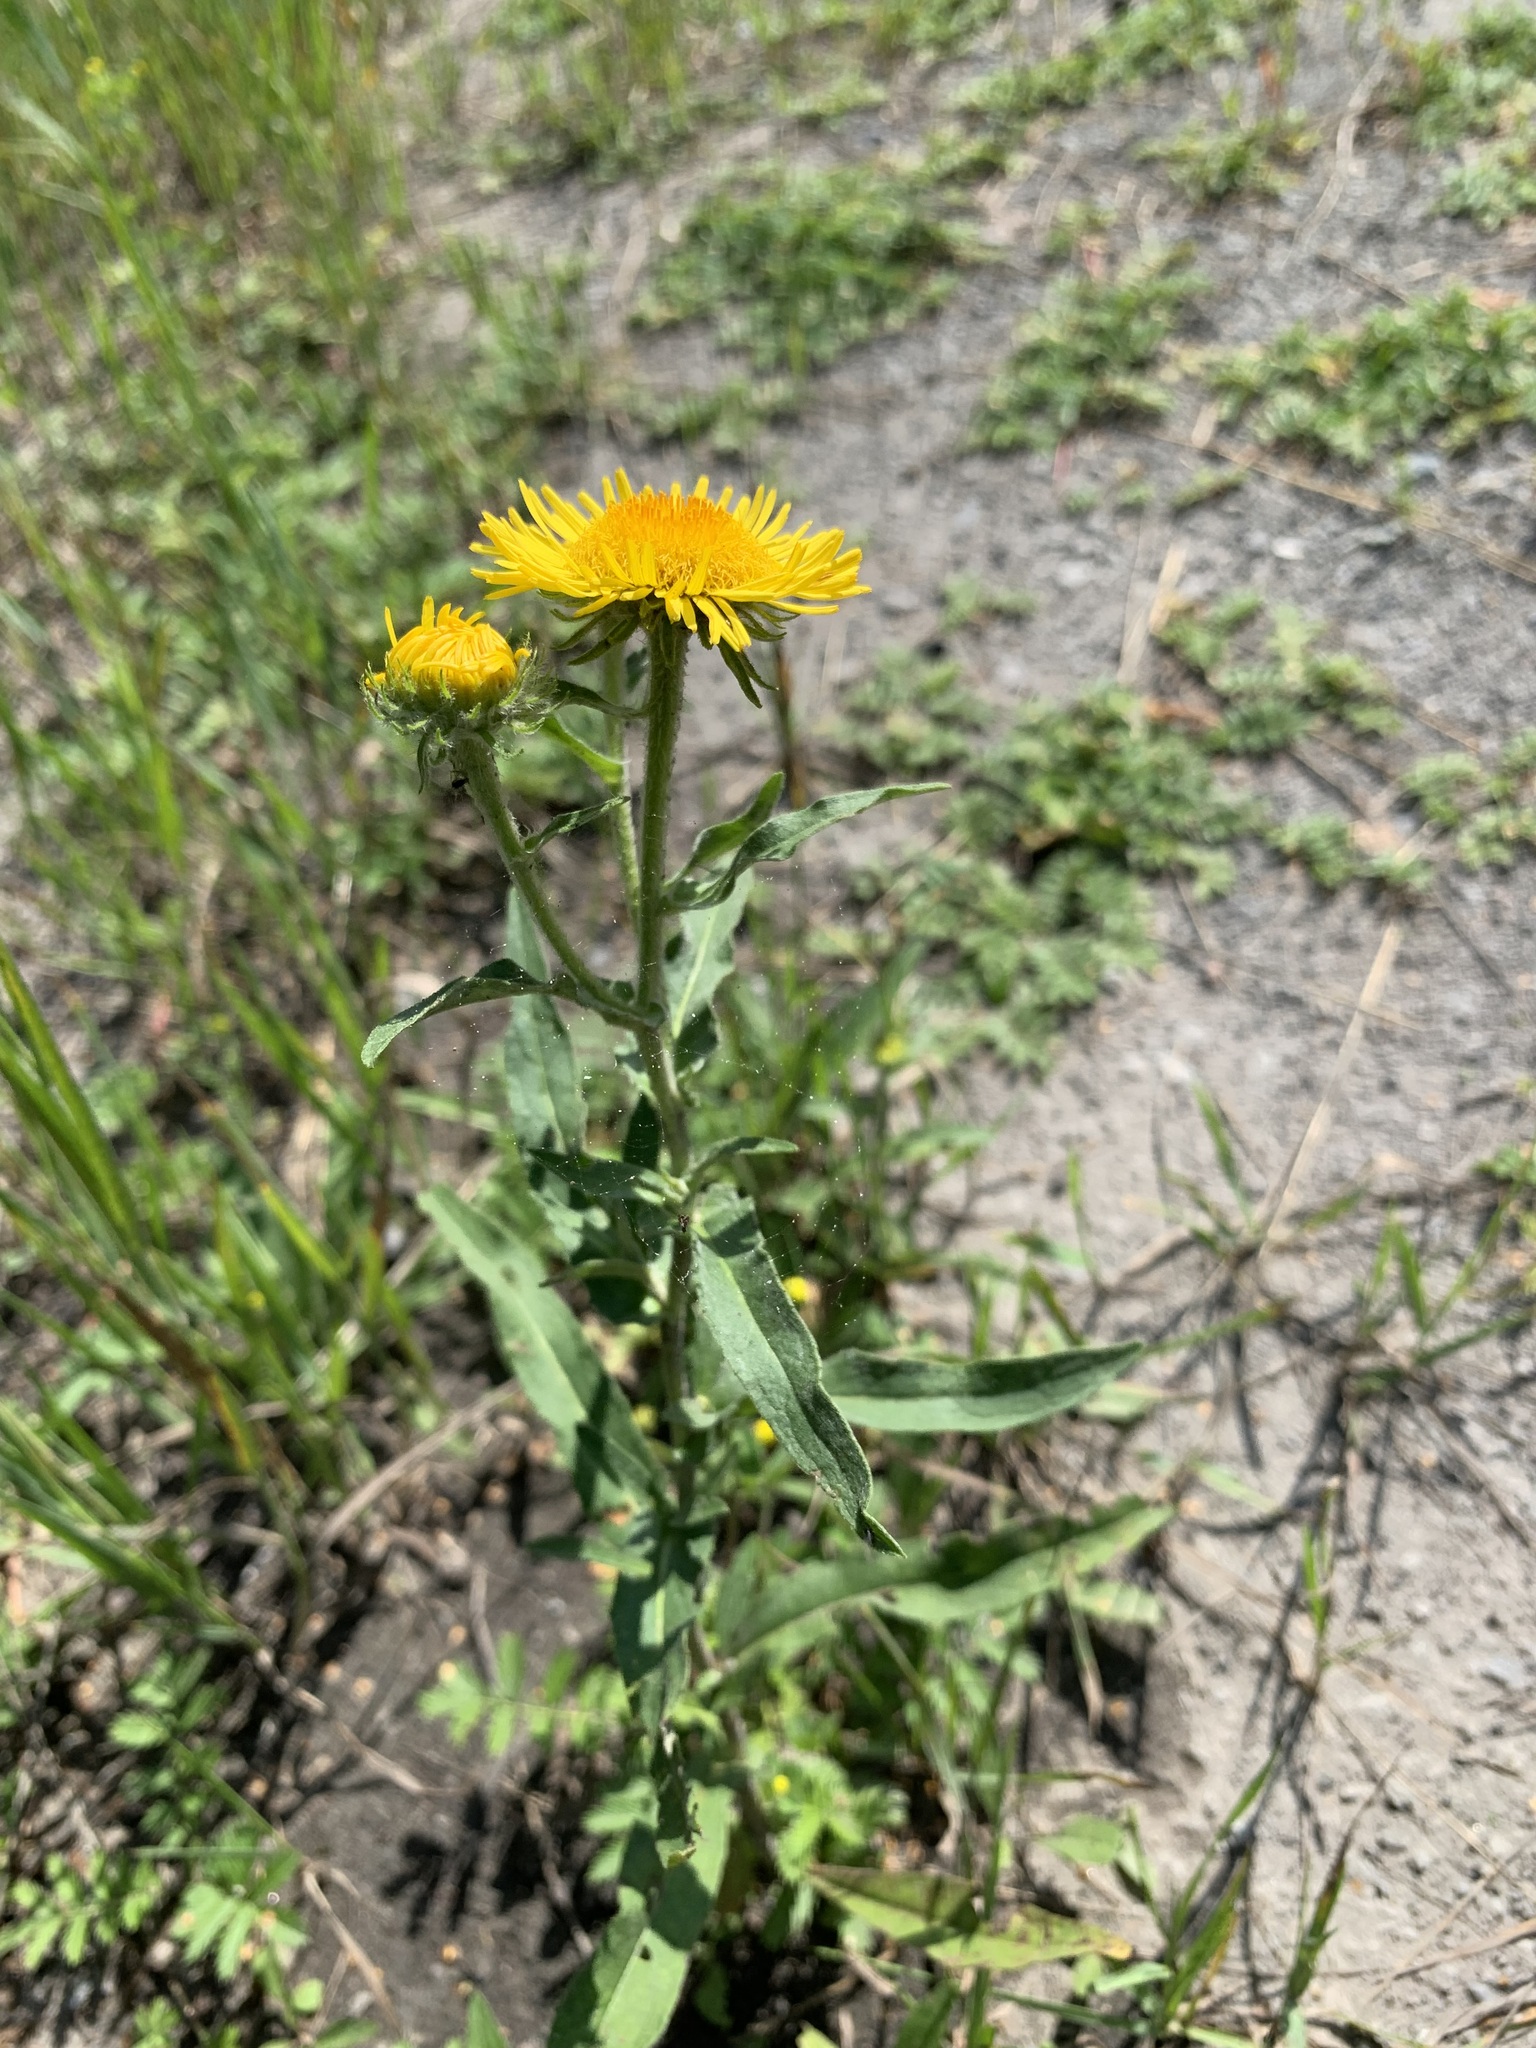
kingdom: Plantae
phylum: Tracheophyta
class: Magnoliopsida
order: Asterales
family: Asteraceae
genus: Pentanema
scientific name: Pentanema britannicum
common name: British elecampane
